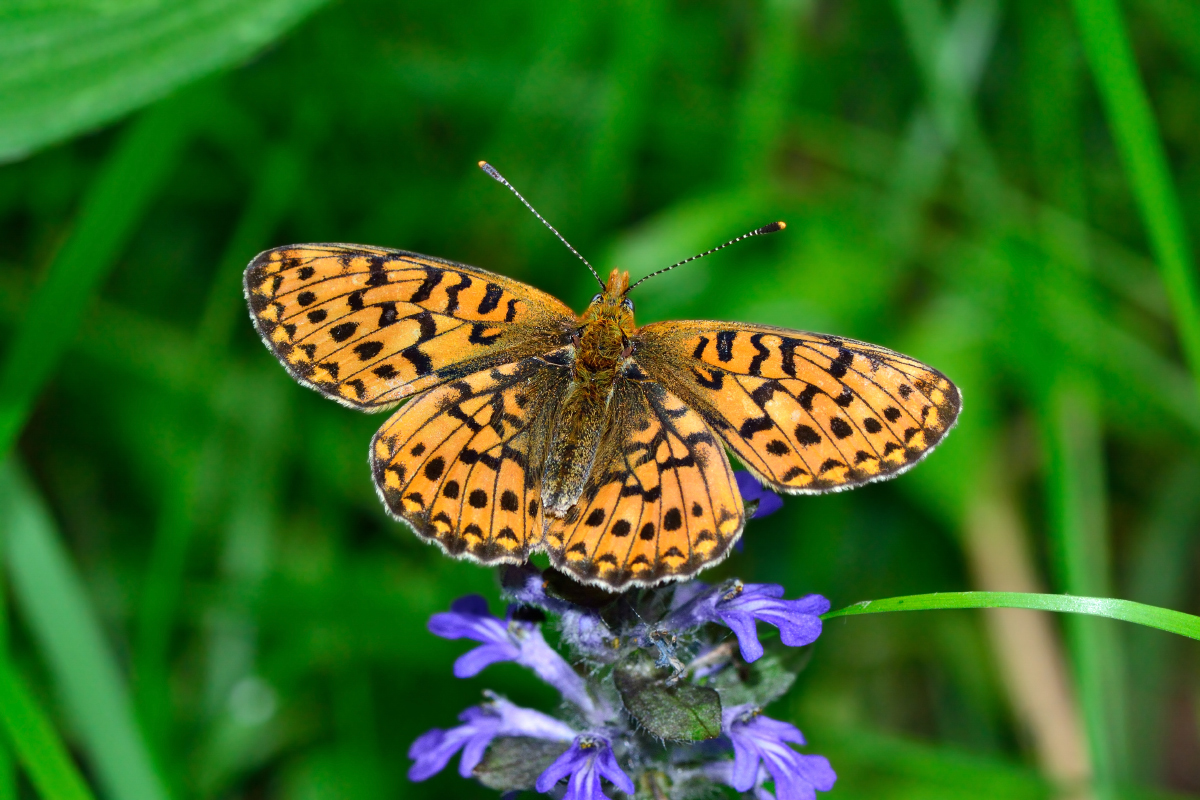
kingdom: Animalia
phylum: Arthropoda
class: Insecta
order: Lepidoptera
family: Nymphalidae
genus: Clossiana
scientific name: Clossiana euphrosyne
